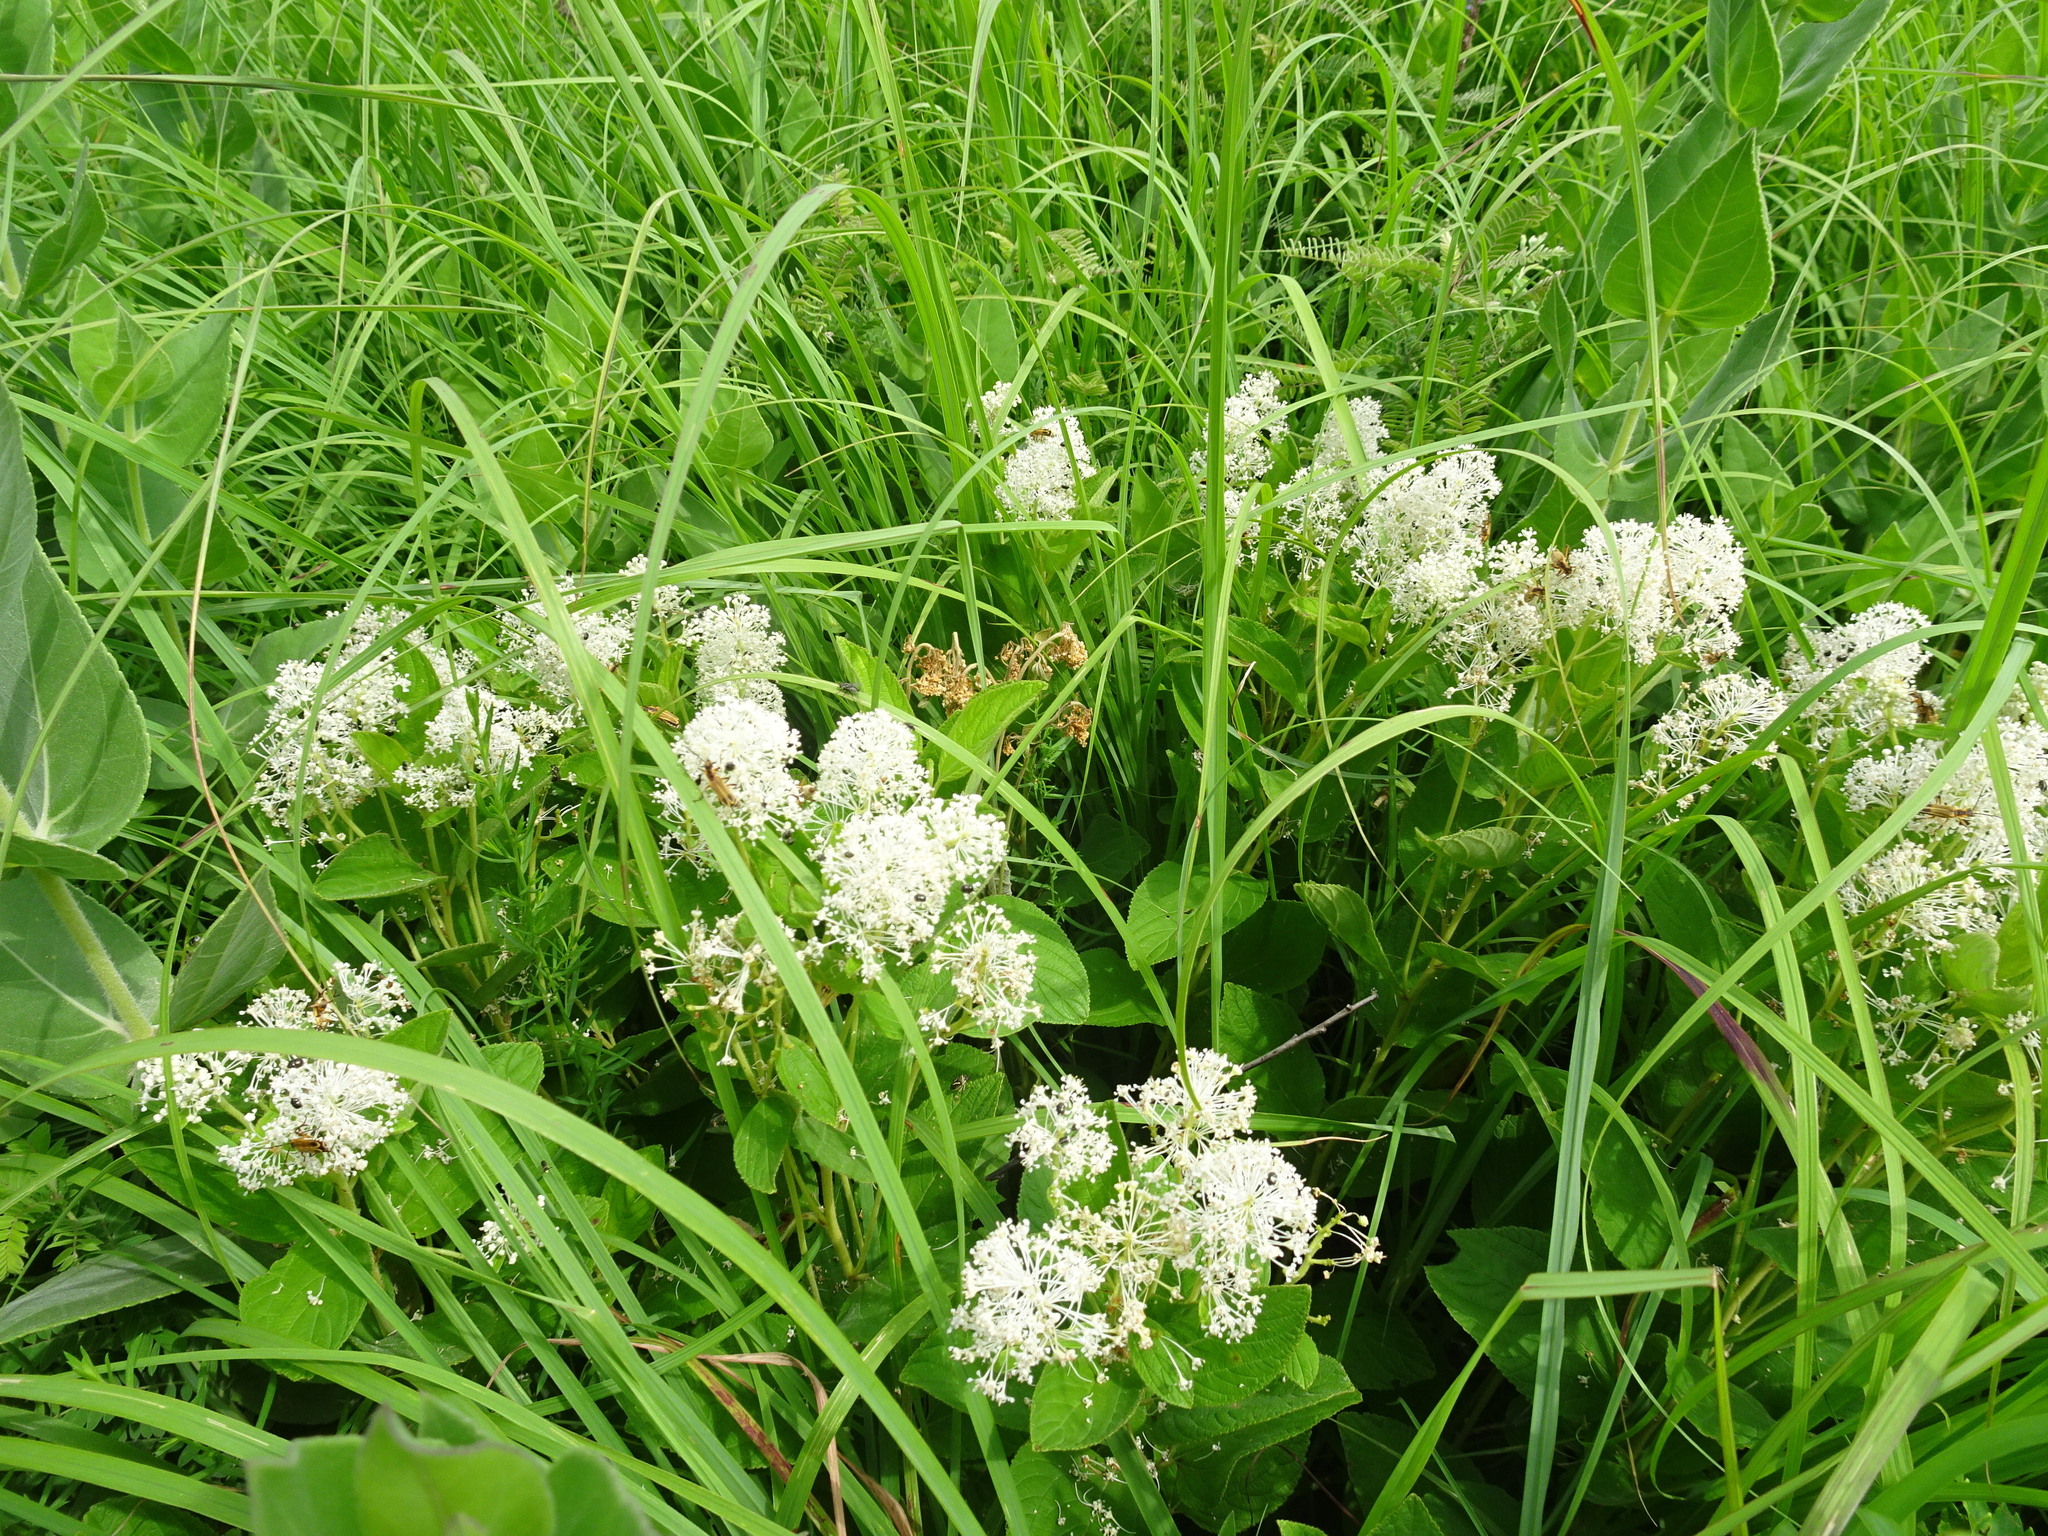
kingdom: Plantae
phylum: Tracheophyta
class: Magnoliopsida
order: Rosales
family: Rhamnaceae
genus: Ceanothus
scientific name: Ceanothus americanus
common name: Redroot
